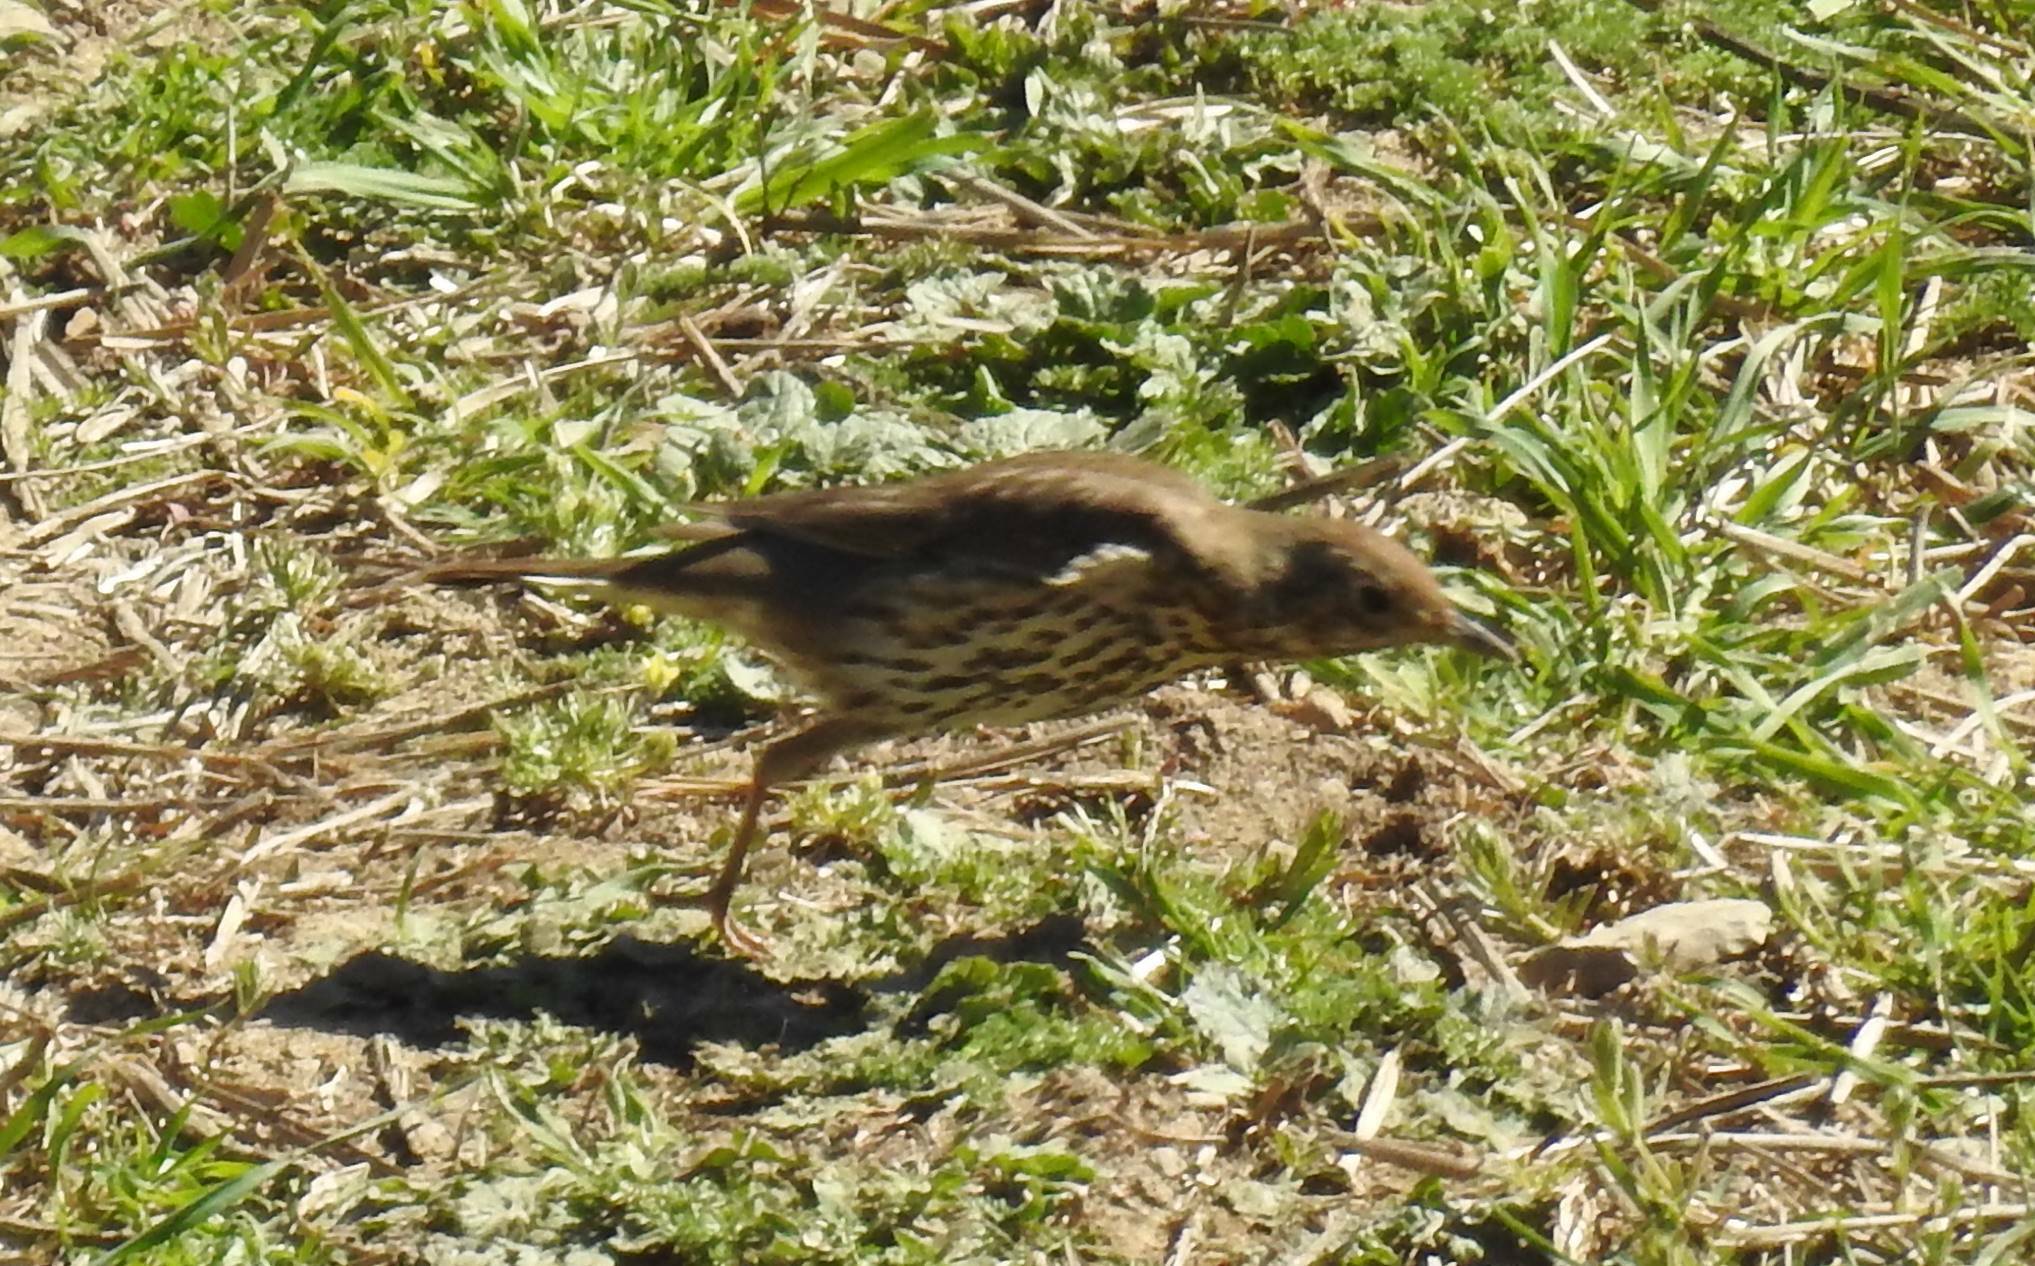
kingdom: Animalia
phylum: Chordata
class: Aves
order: Passeriformes
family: Turdidae
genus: Turdus
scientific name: Turdus philomelos
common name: Song thrush
